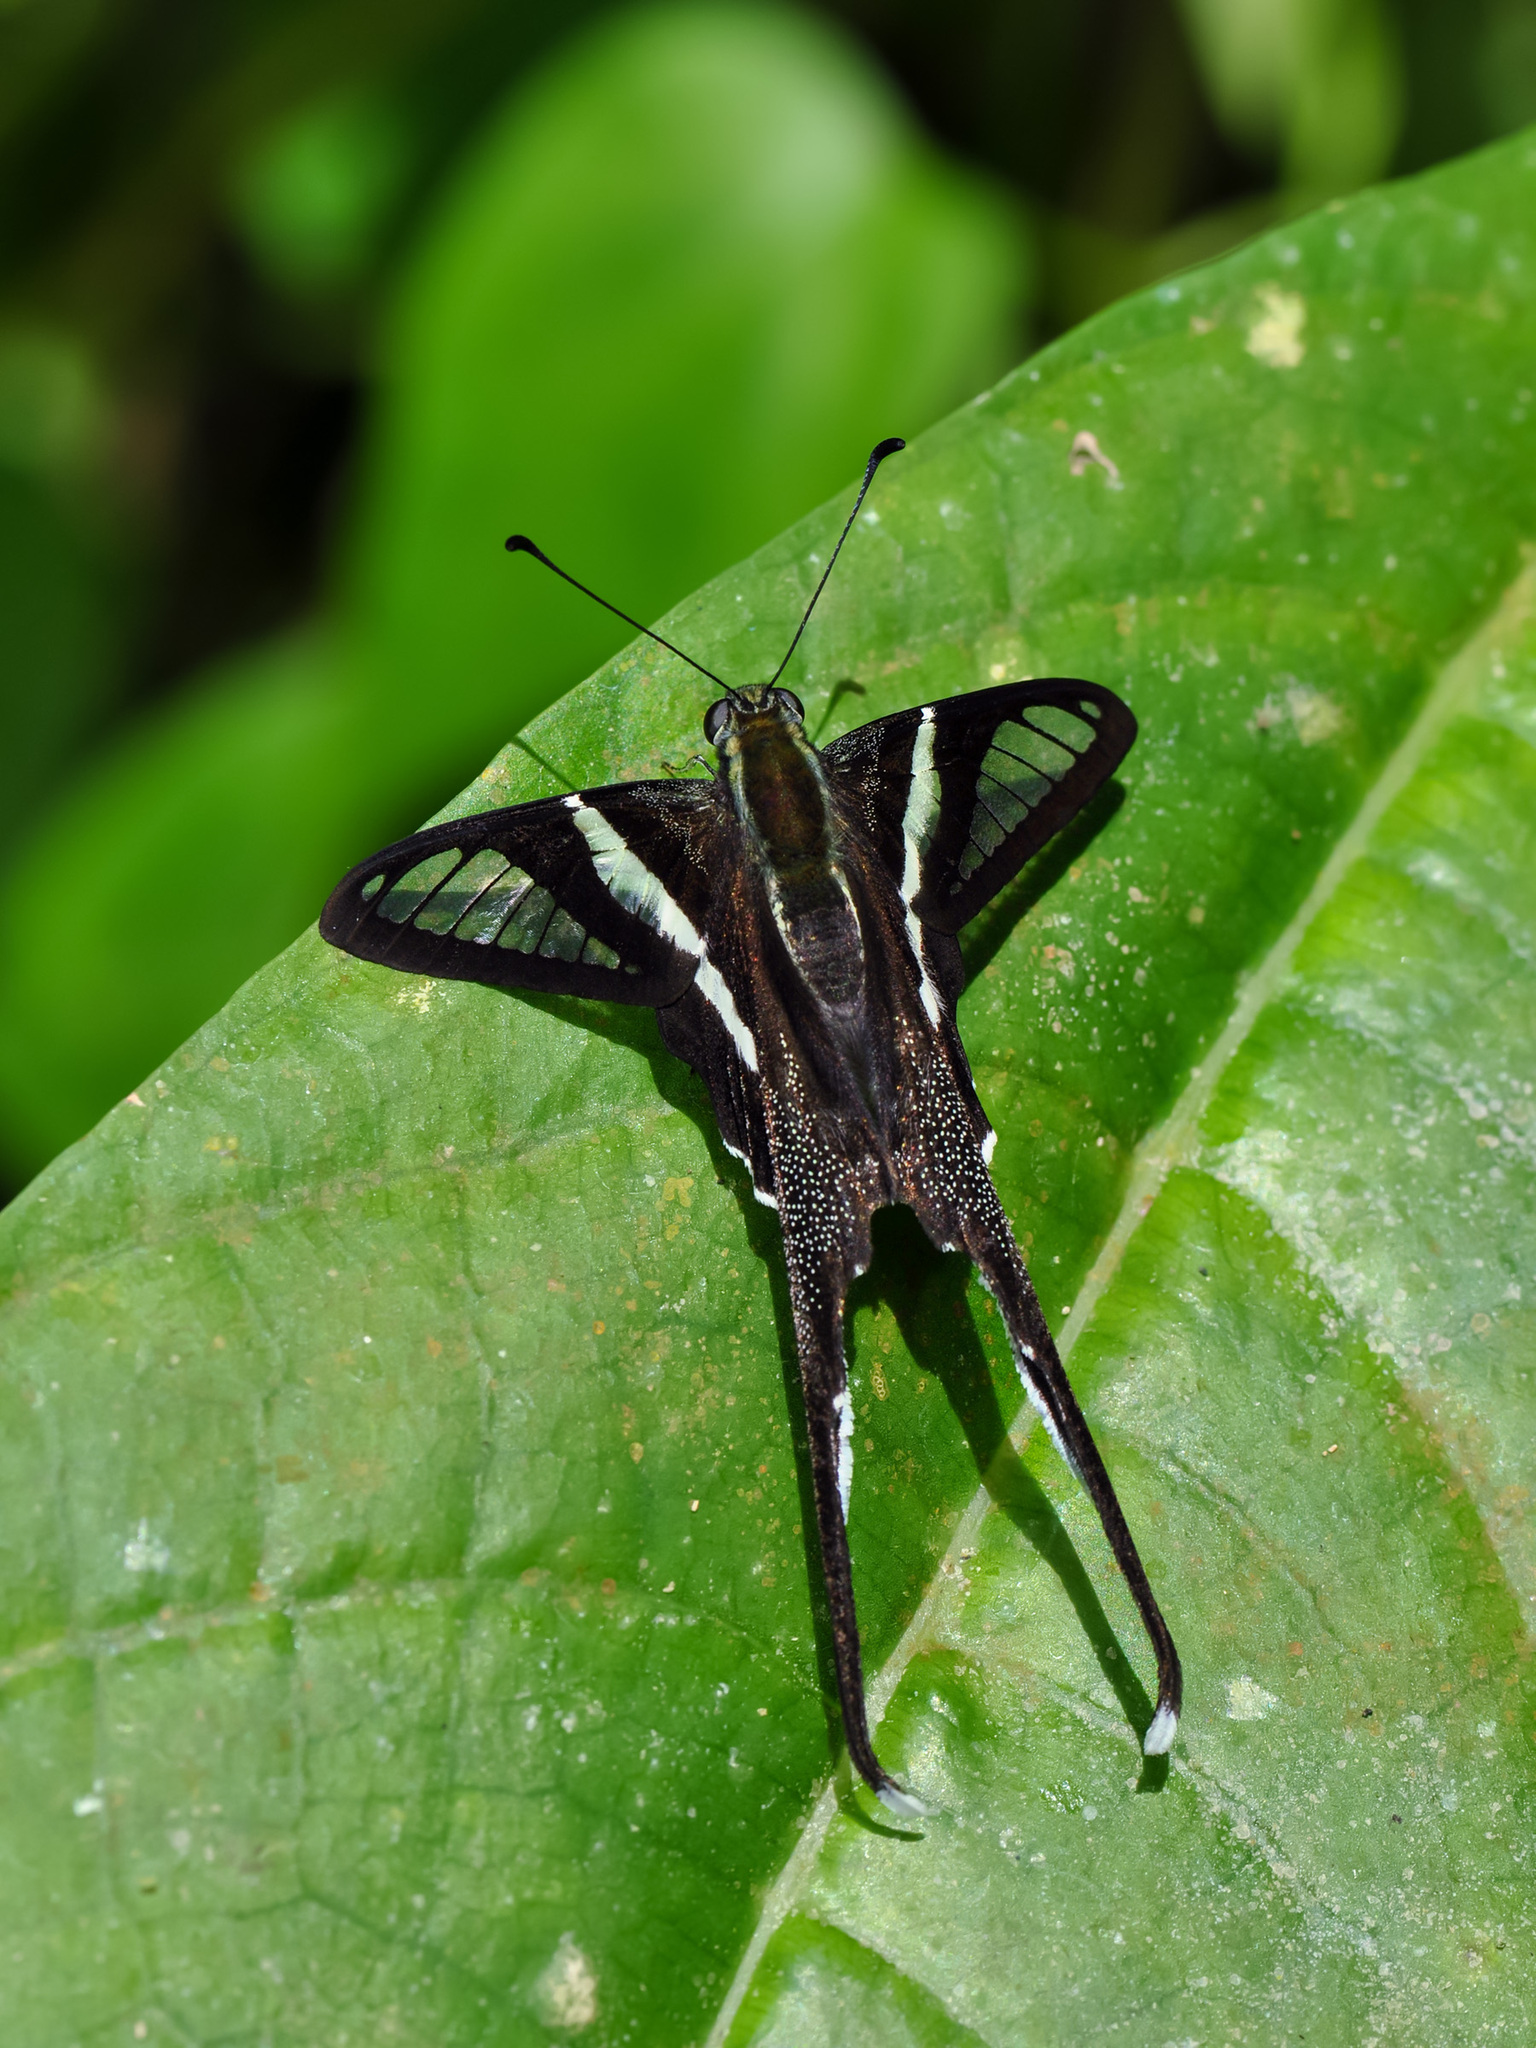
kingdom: Animalia
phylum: Arthropoda
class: Insecta
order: Lepidoptera
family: Papilionidae
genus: Lamproptera
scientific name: Lamproptera curius
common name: White dragontail
